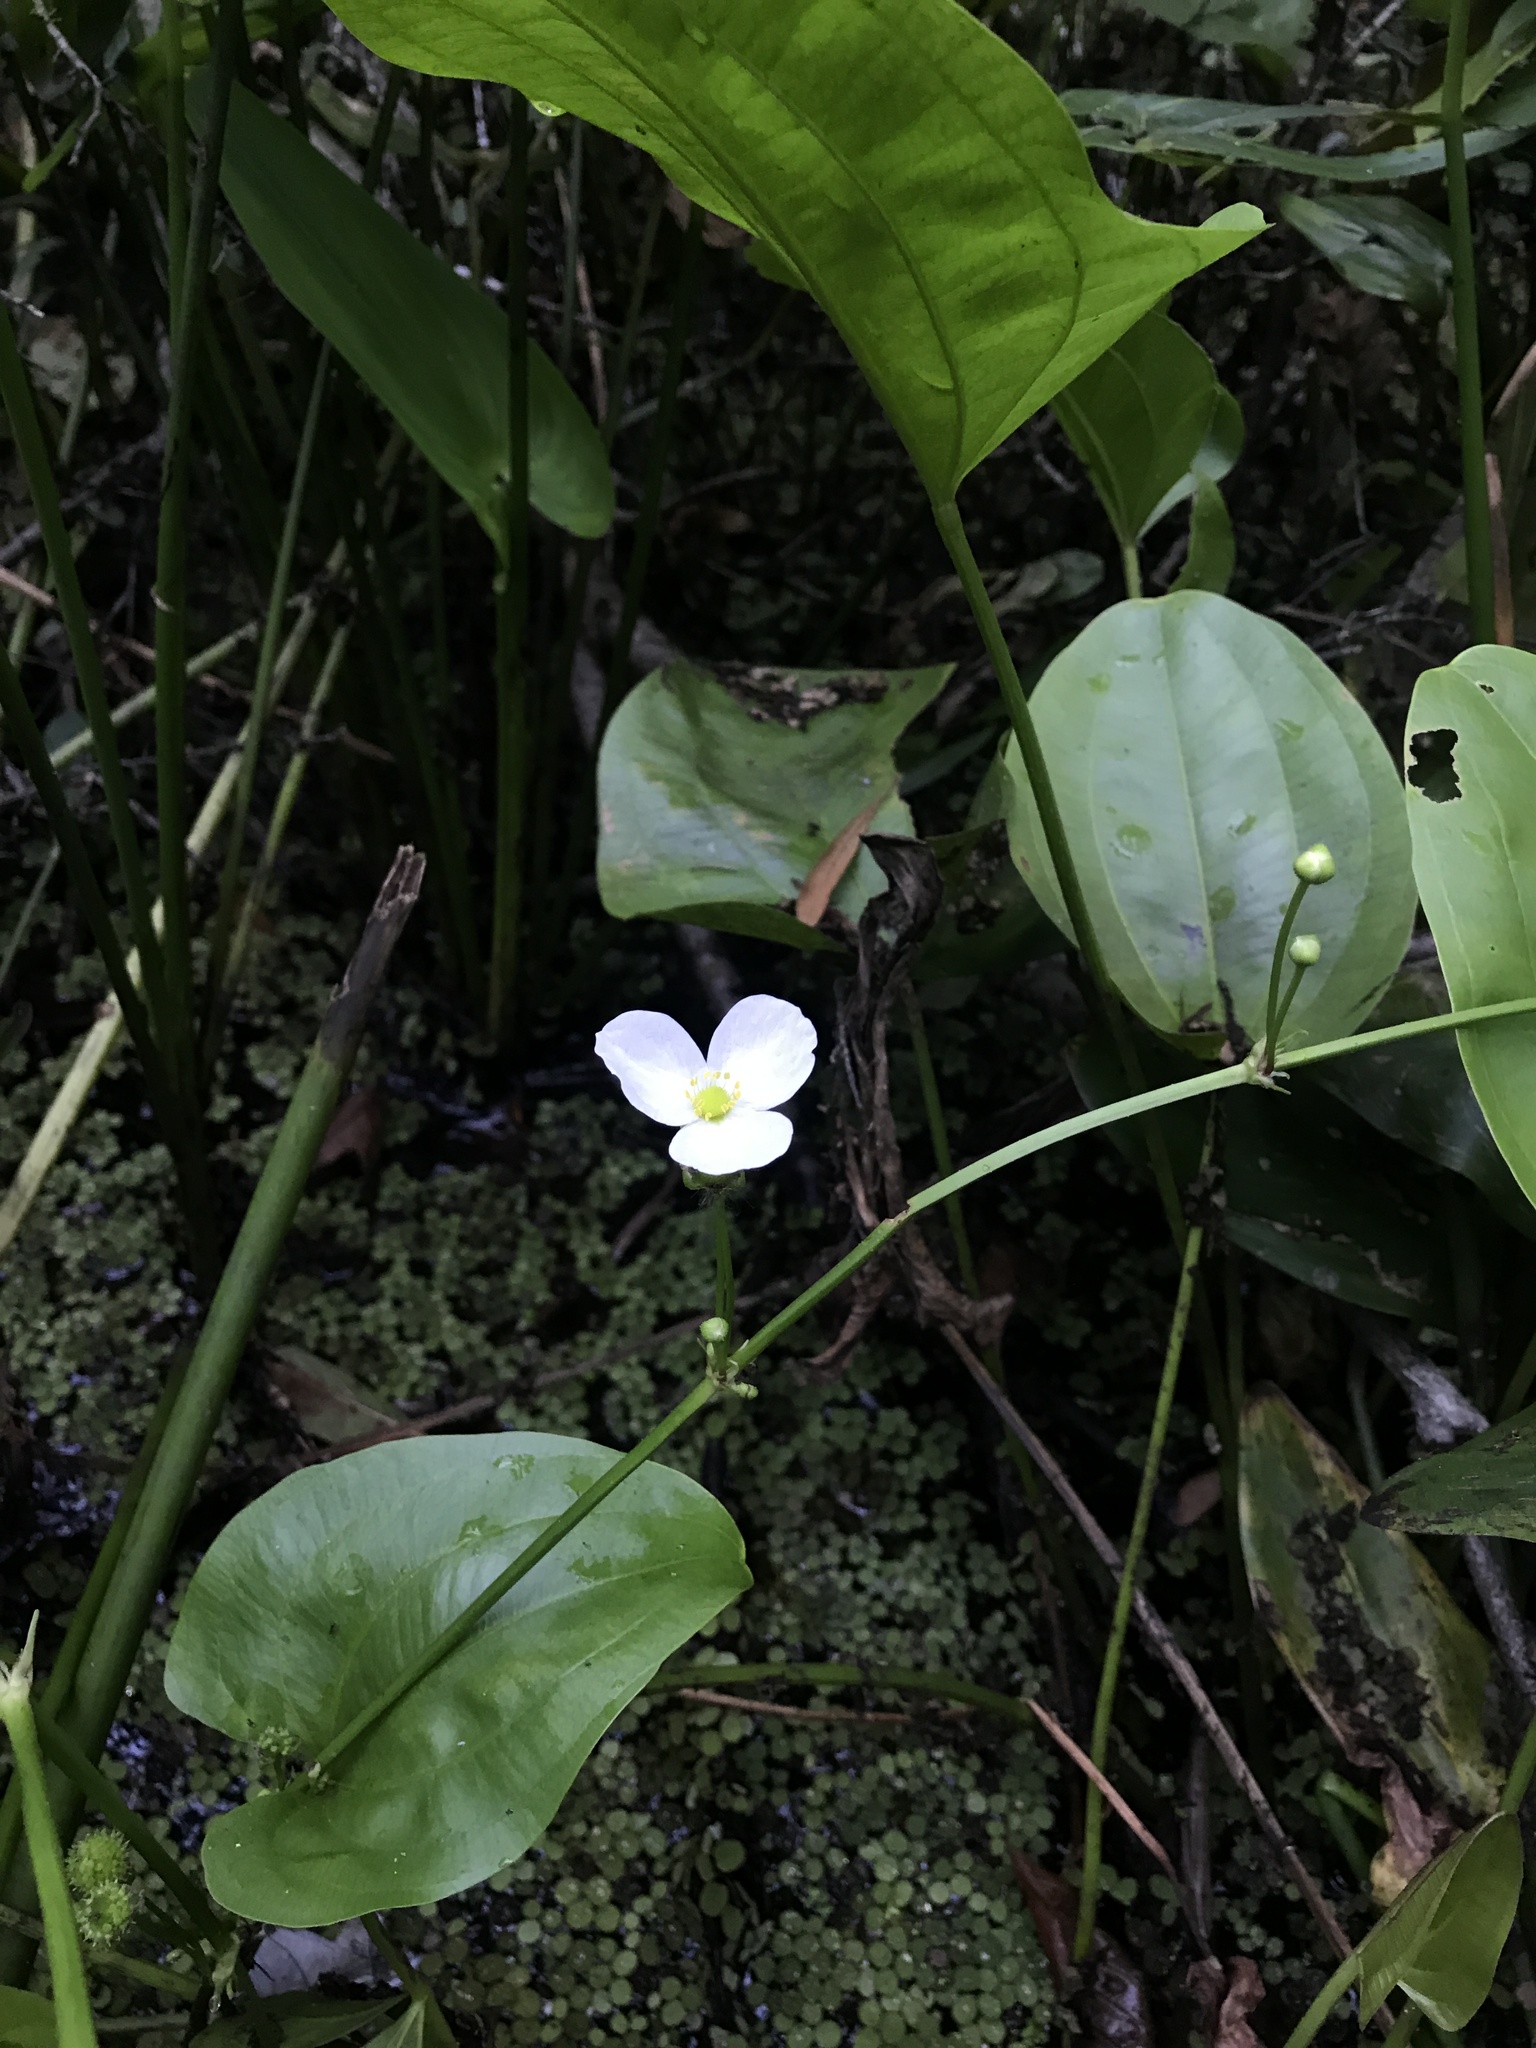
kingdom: Plantae
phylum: Tracheophyta
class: Liliopsida
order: Alismatales
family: Alismataceae
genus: Aquarius
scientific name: Aquarius cordifolius
